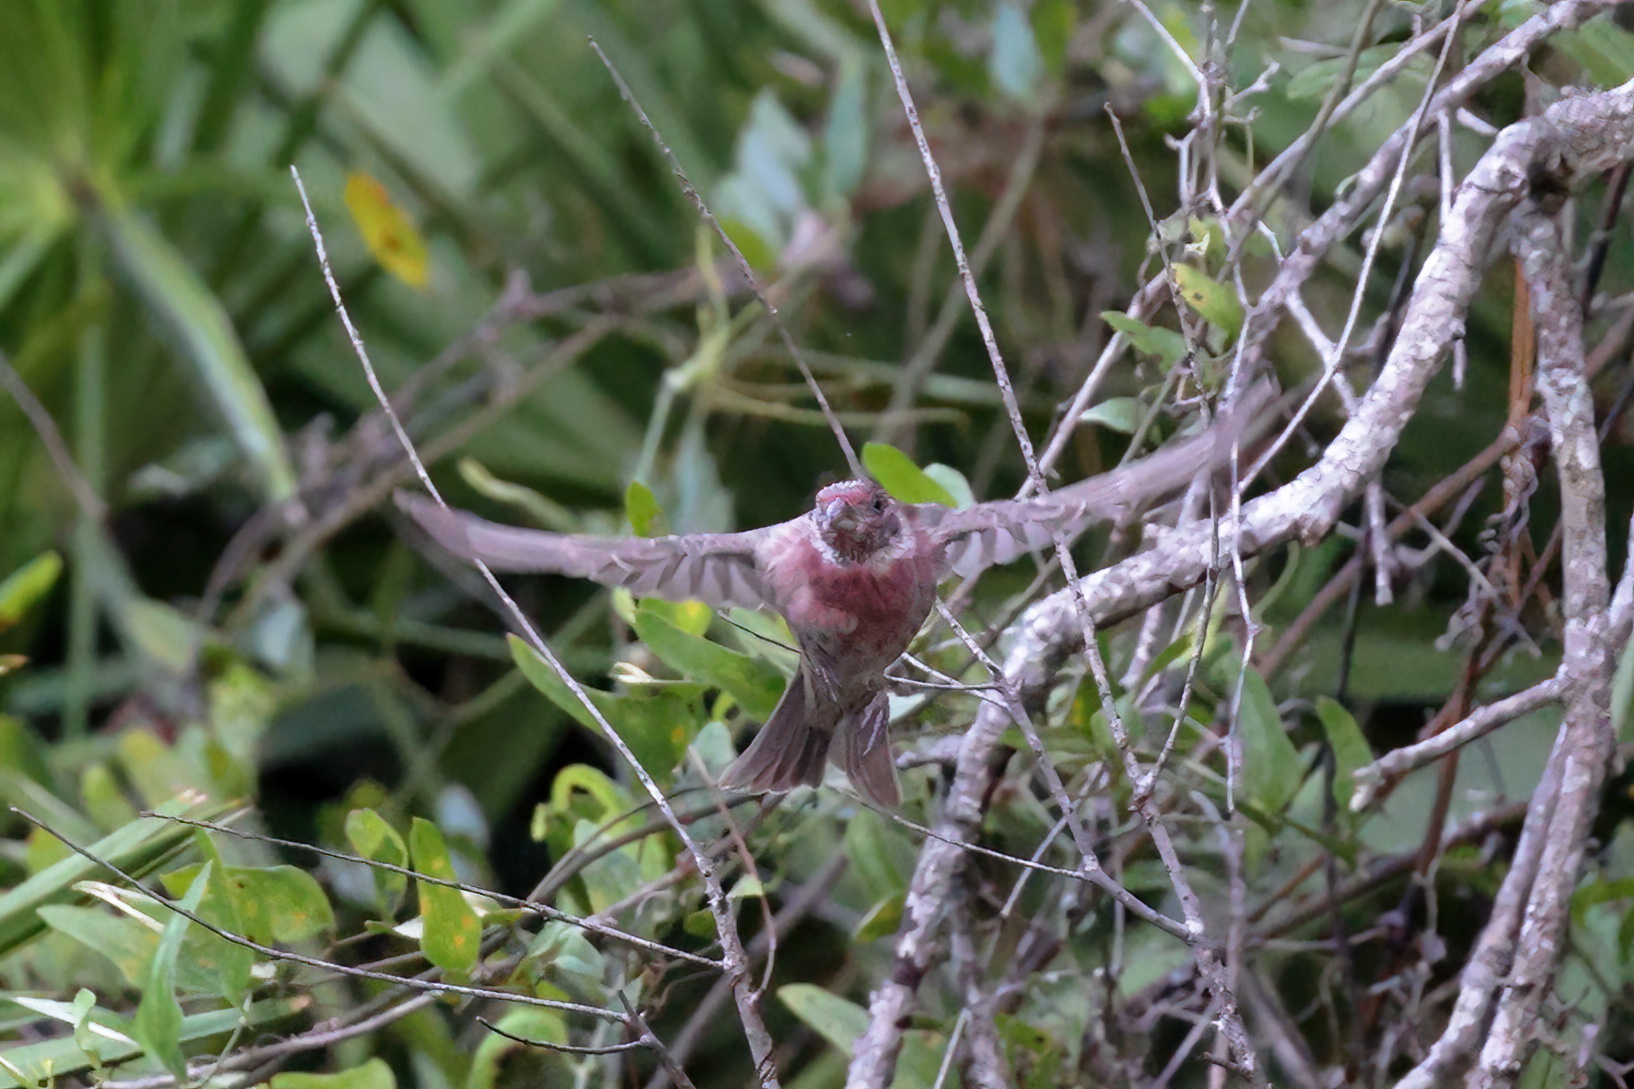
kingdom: Animalia
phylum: Chordata
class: Aves
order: Passeriformes
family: Fringillidae
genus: Haemorhous
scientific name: Haemorhous mexicanus
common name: House finch
